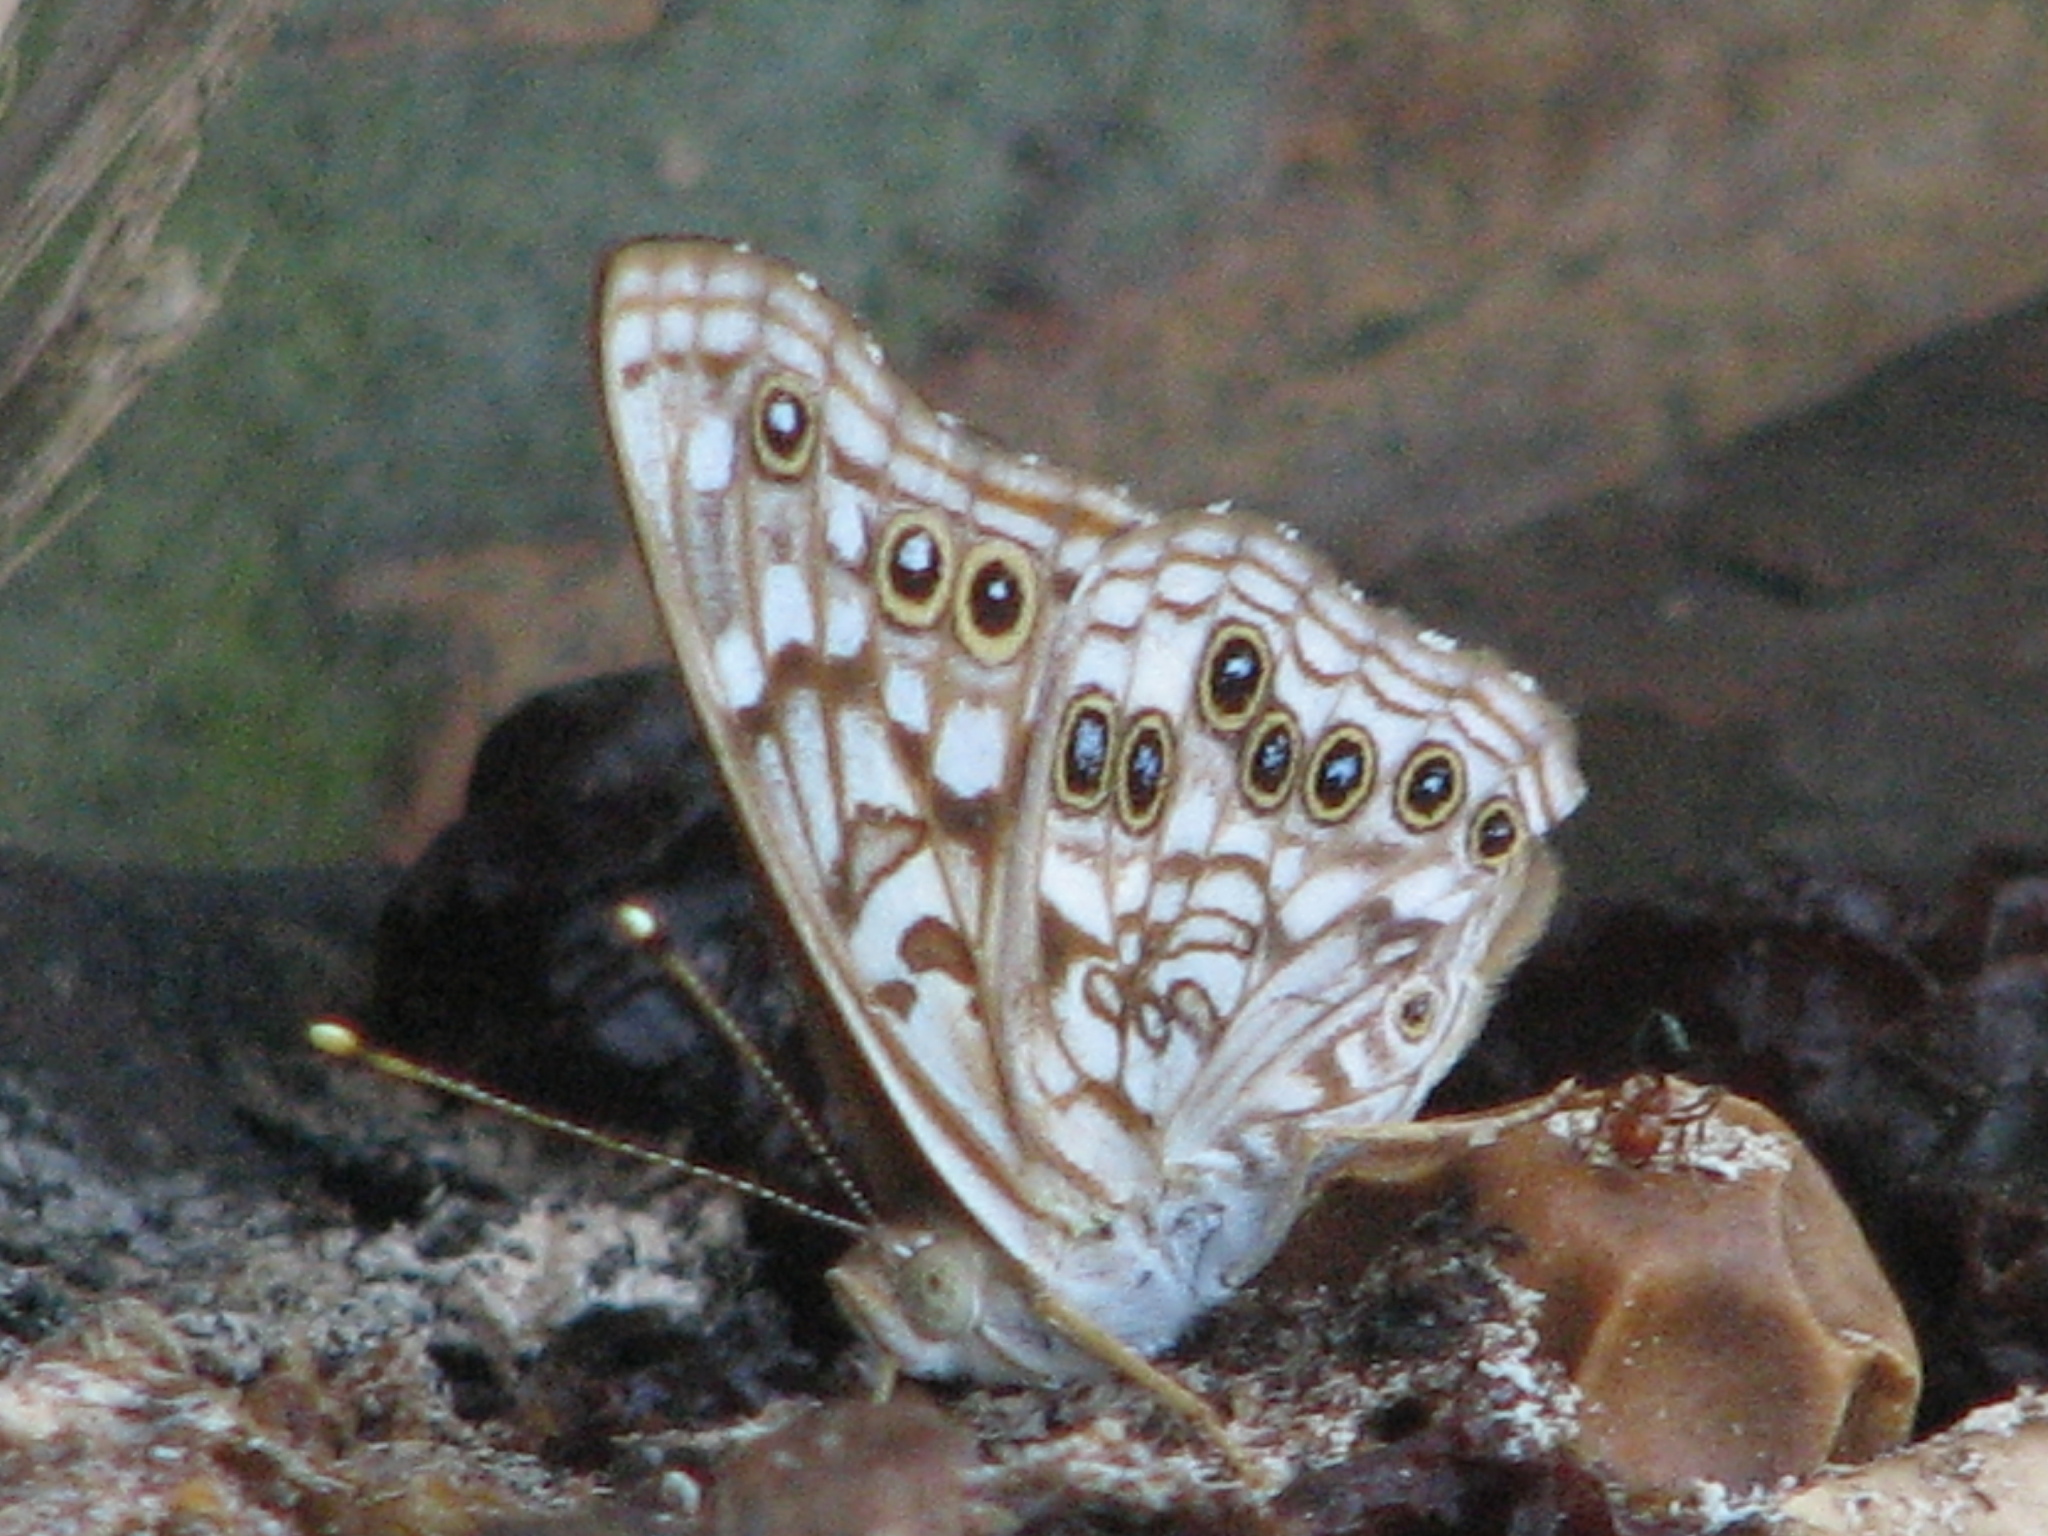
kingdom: Animalia
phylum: Arthropoda
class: Insecta
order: Lepidoptera
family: Nymphalidae
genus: Asterocampa
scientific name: Asterocampa celtis
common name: Hackberry emperor
